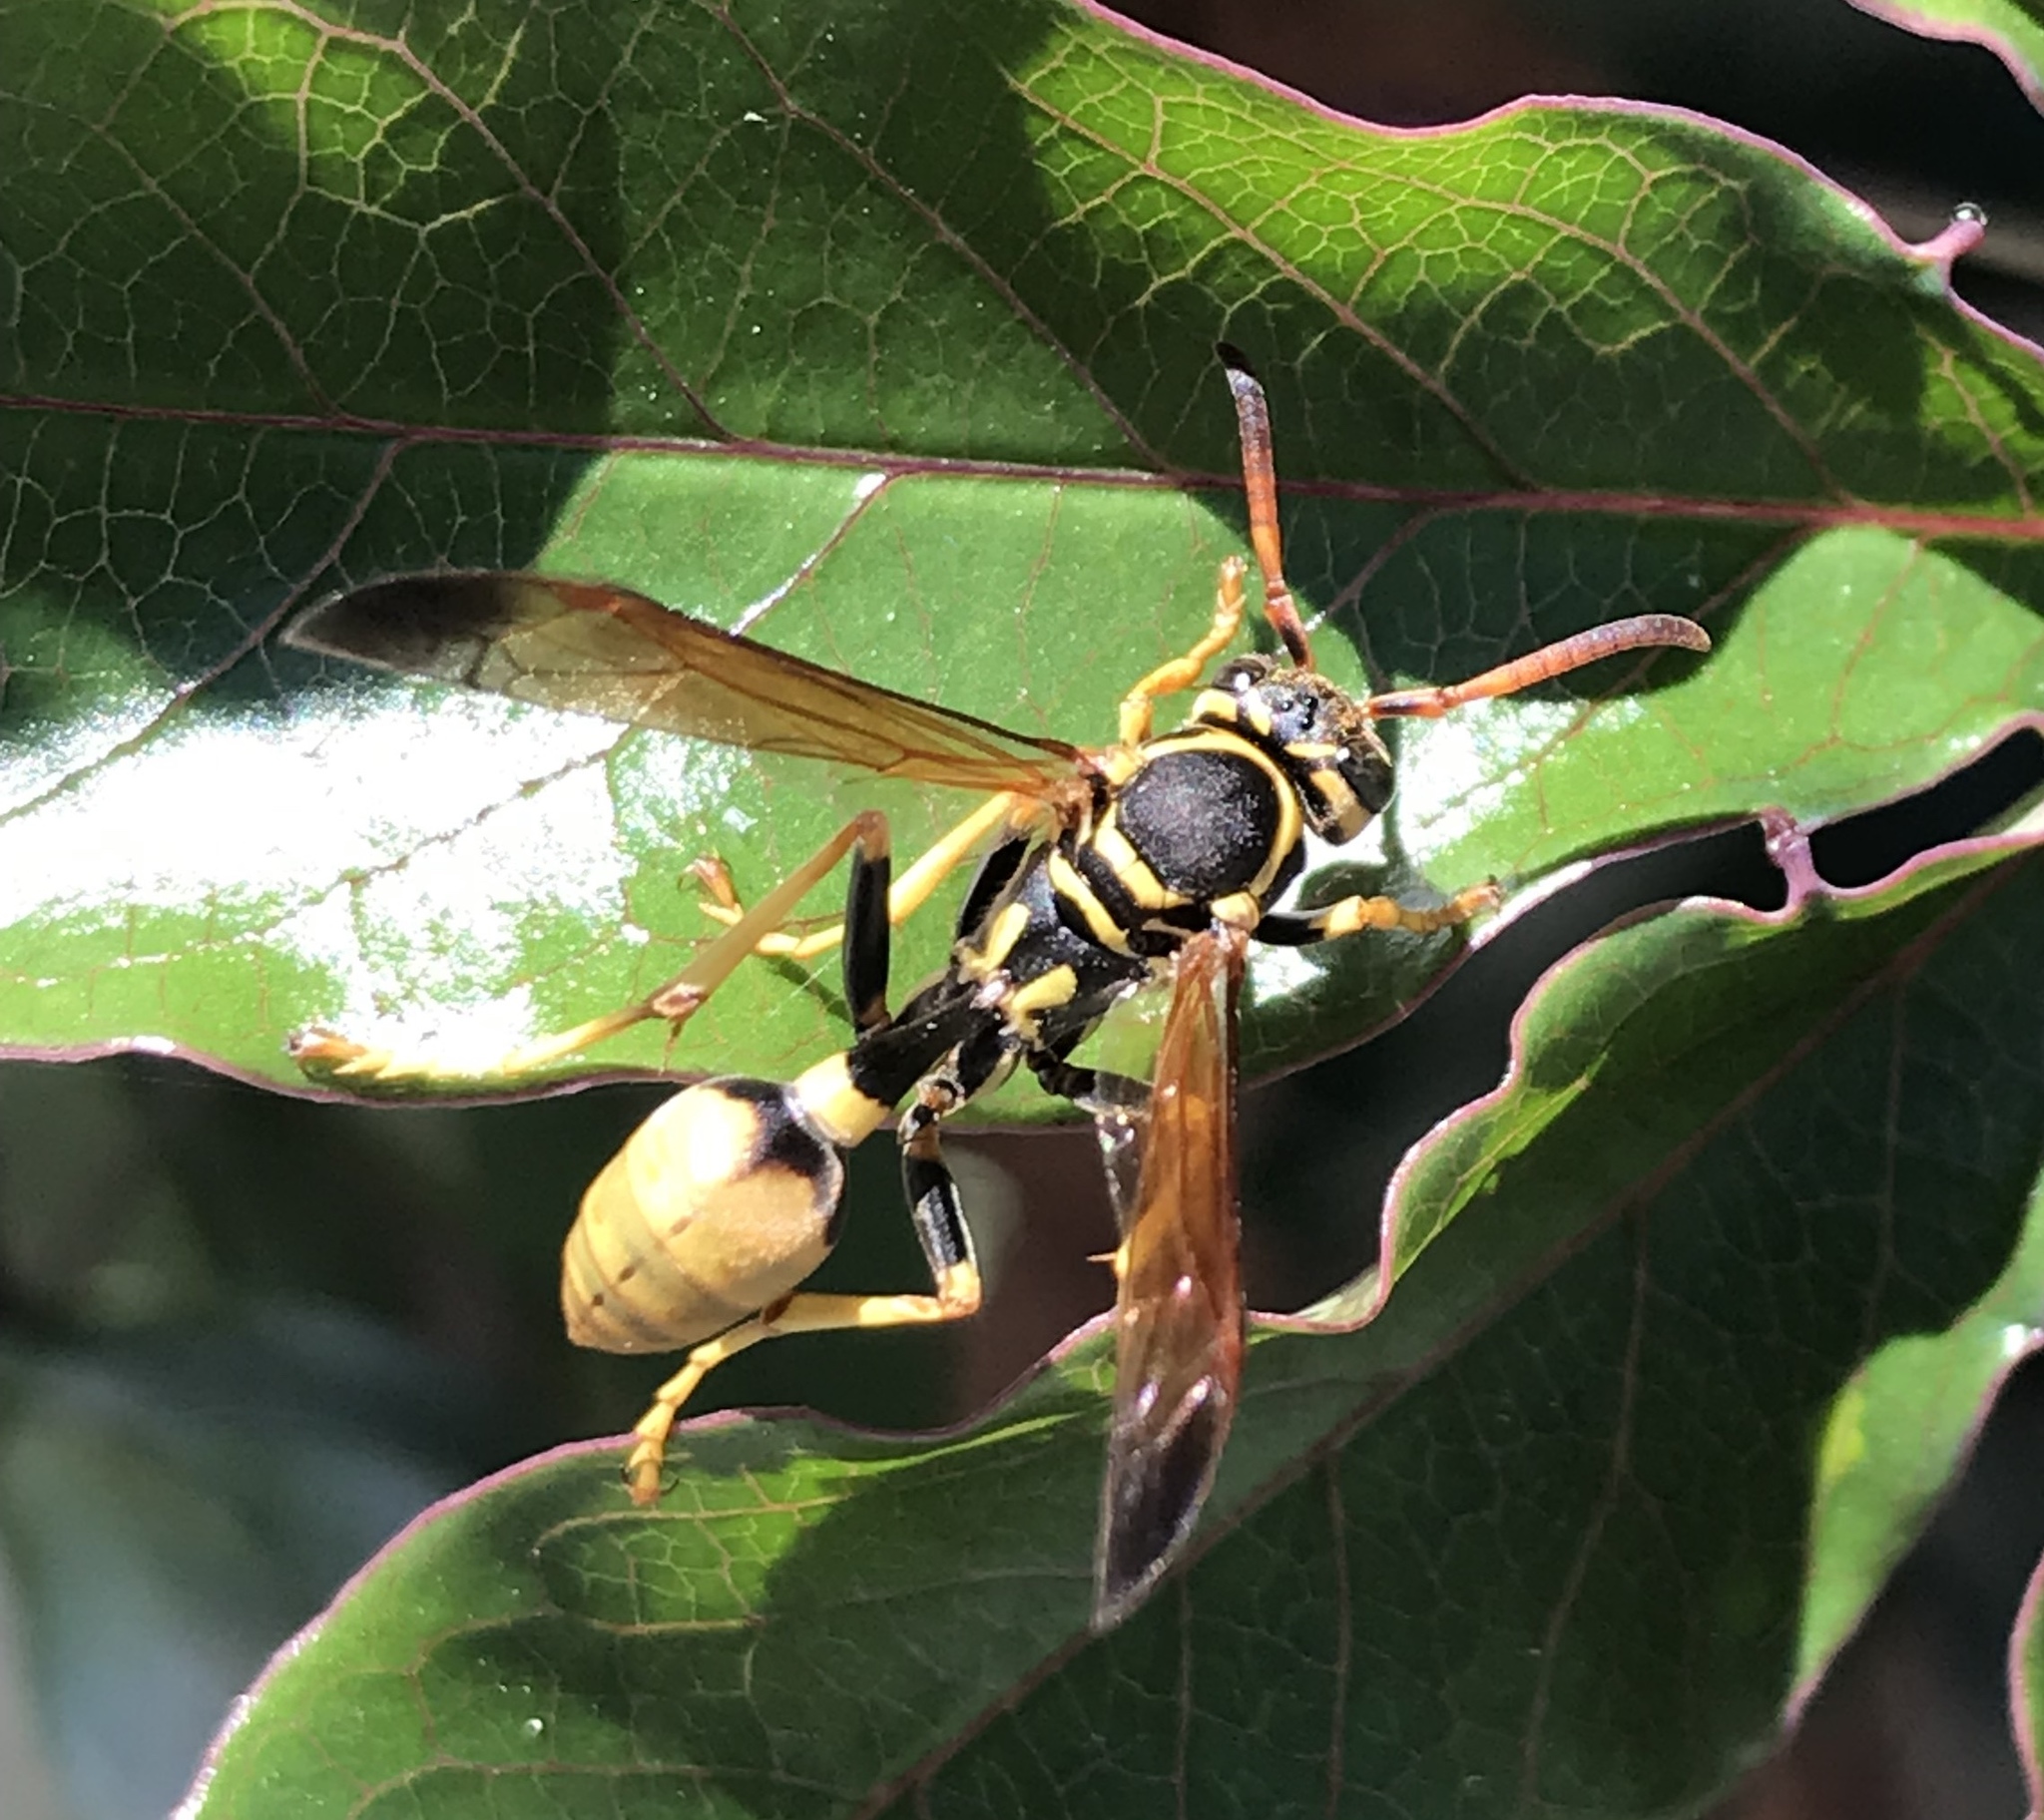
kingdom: Animalia
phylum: Arthropoda
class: Insecta
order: Hymenoptera
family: Vespidae
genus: Mischocyttarus
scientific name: Mischocyttarus flavitarsis
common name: Wasp
